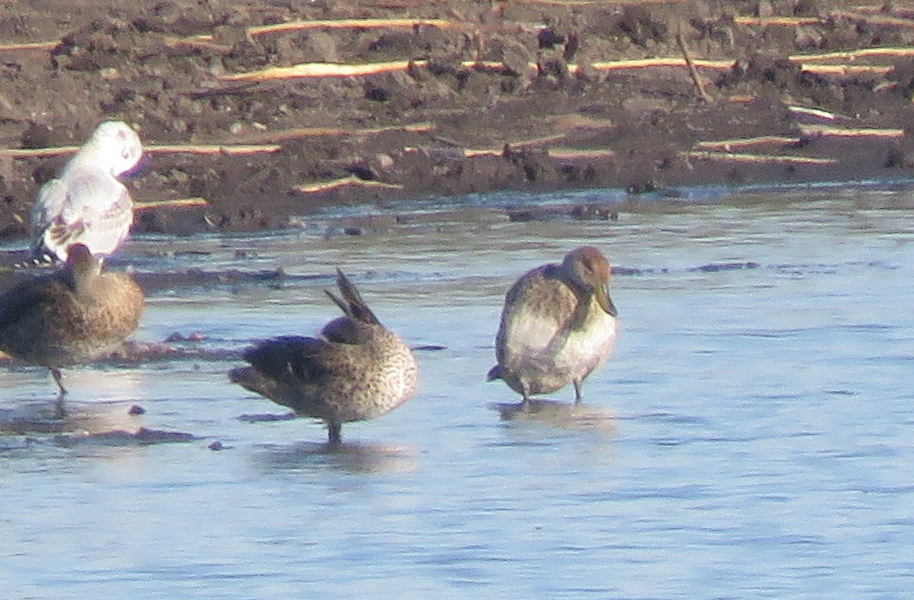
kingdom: Animalia
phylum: Chordata
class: Aves
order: Anseriformes
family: Anatidae
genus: Anas
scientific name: Anas georgica
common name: Yellow-billed pintail
